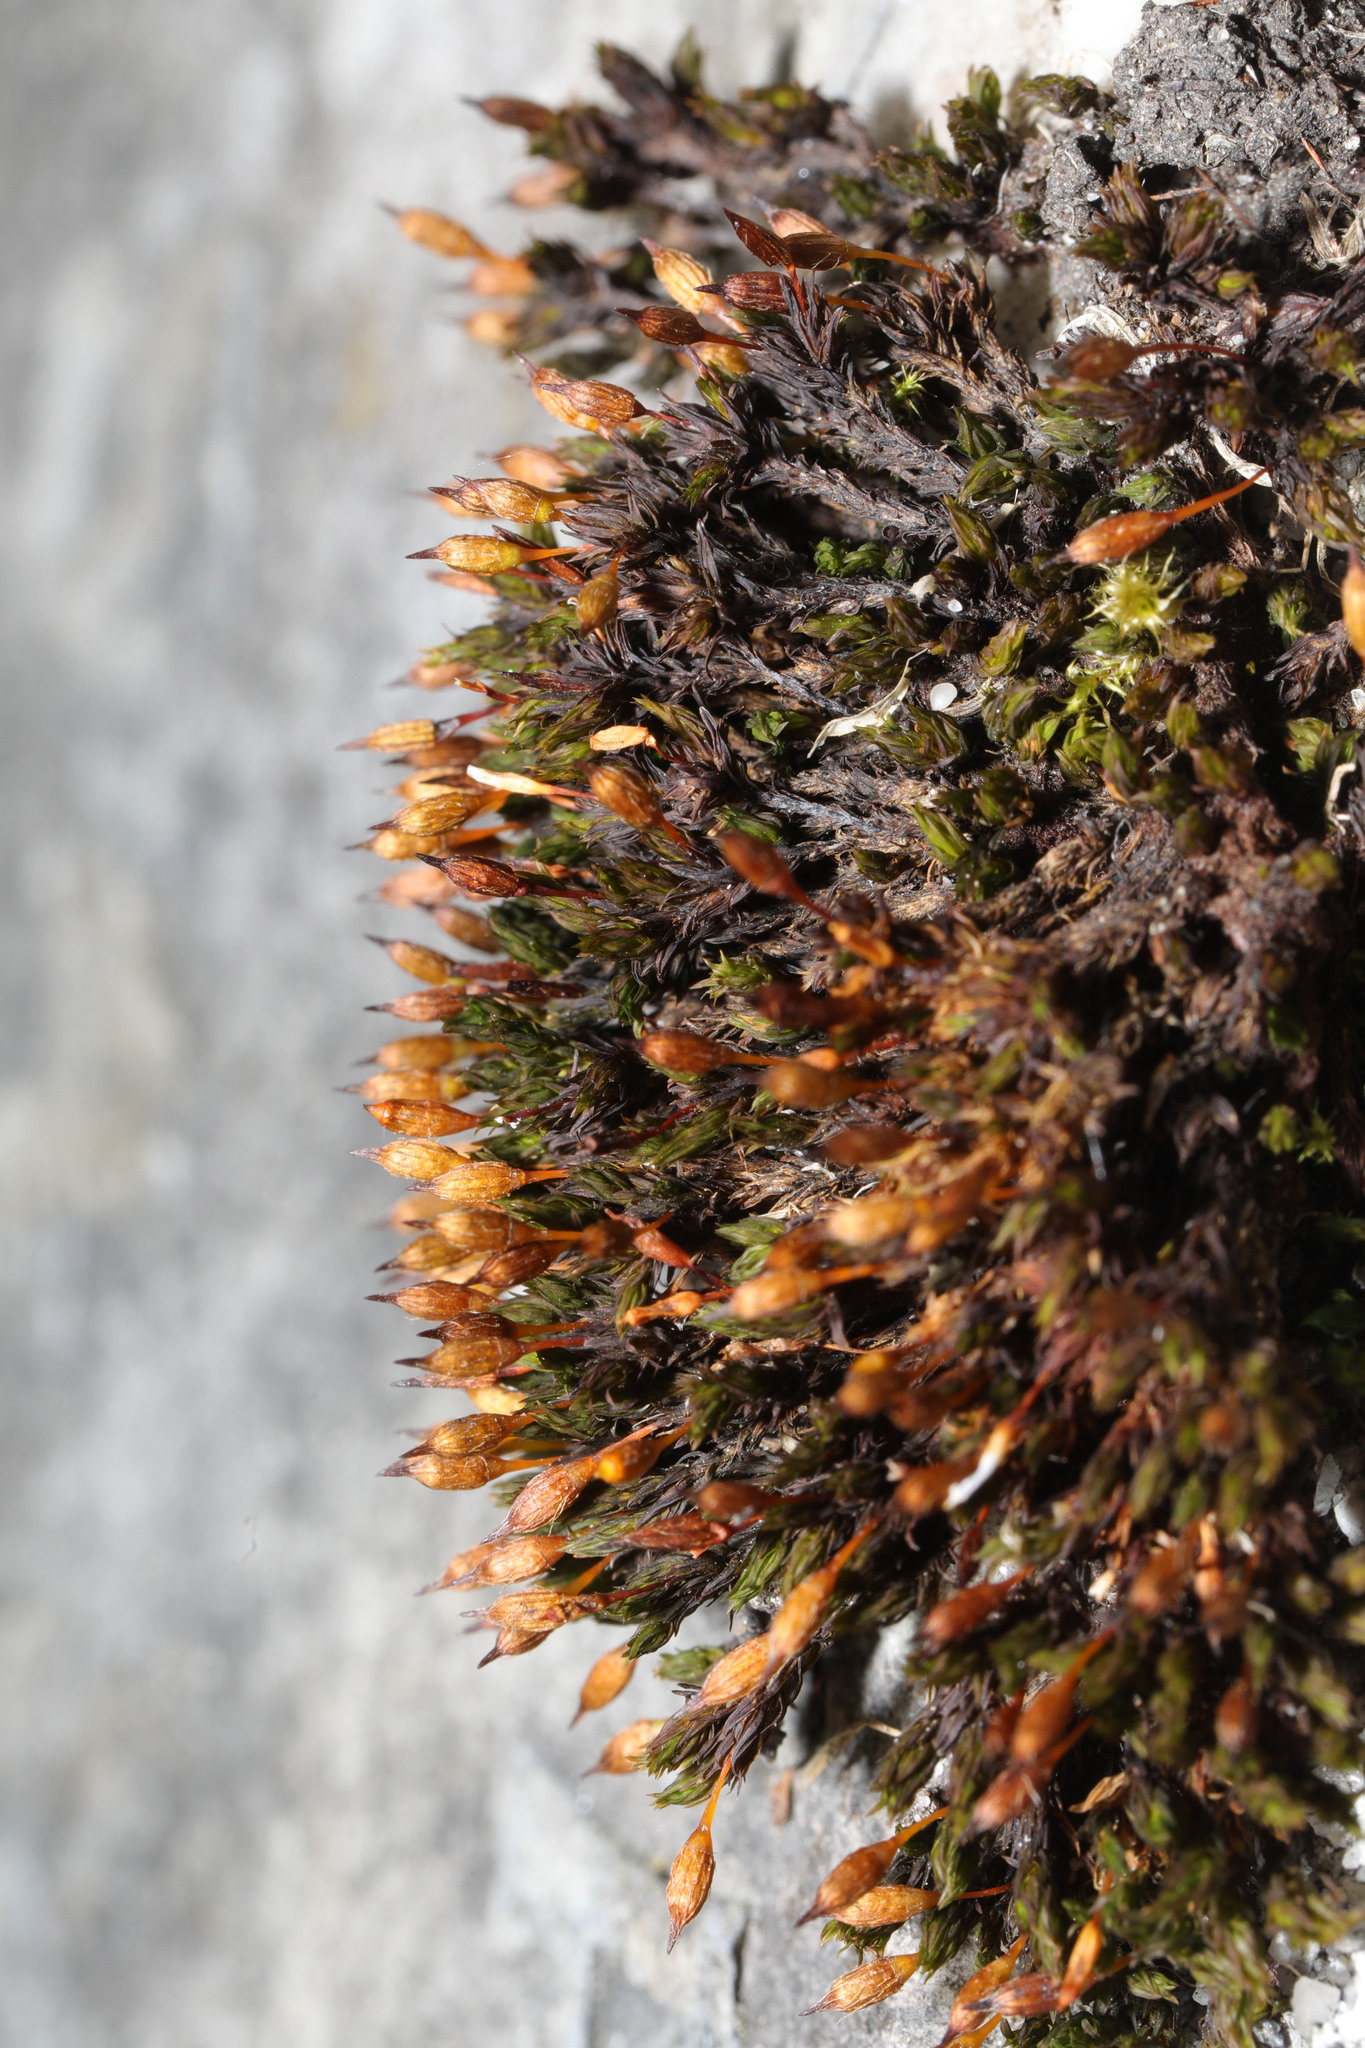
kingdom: Plantae
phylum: Bryophyta
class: Bryopsida
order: Orthotrichales
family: Orthotrichaceae
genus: Orthotrichum
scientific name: Orthotrichum anomalum
